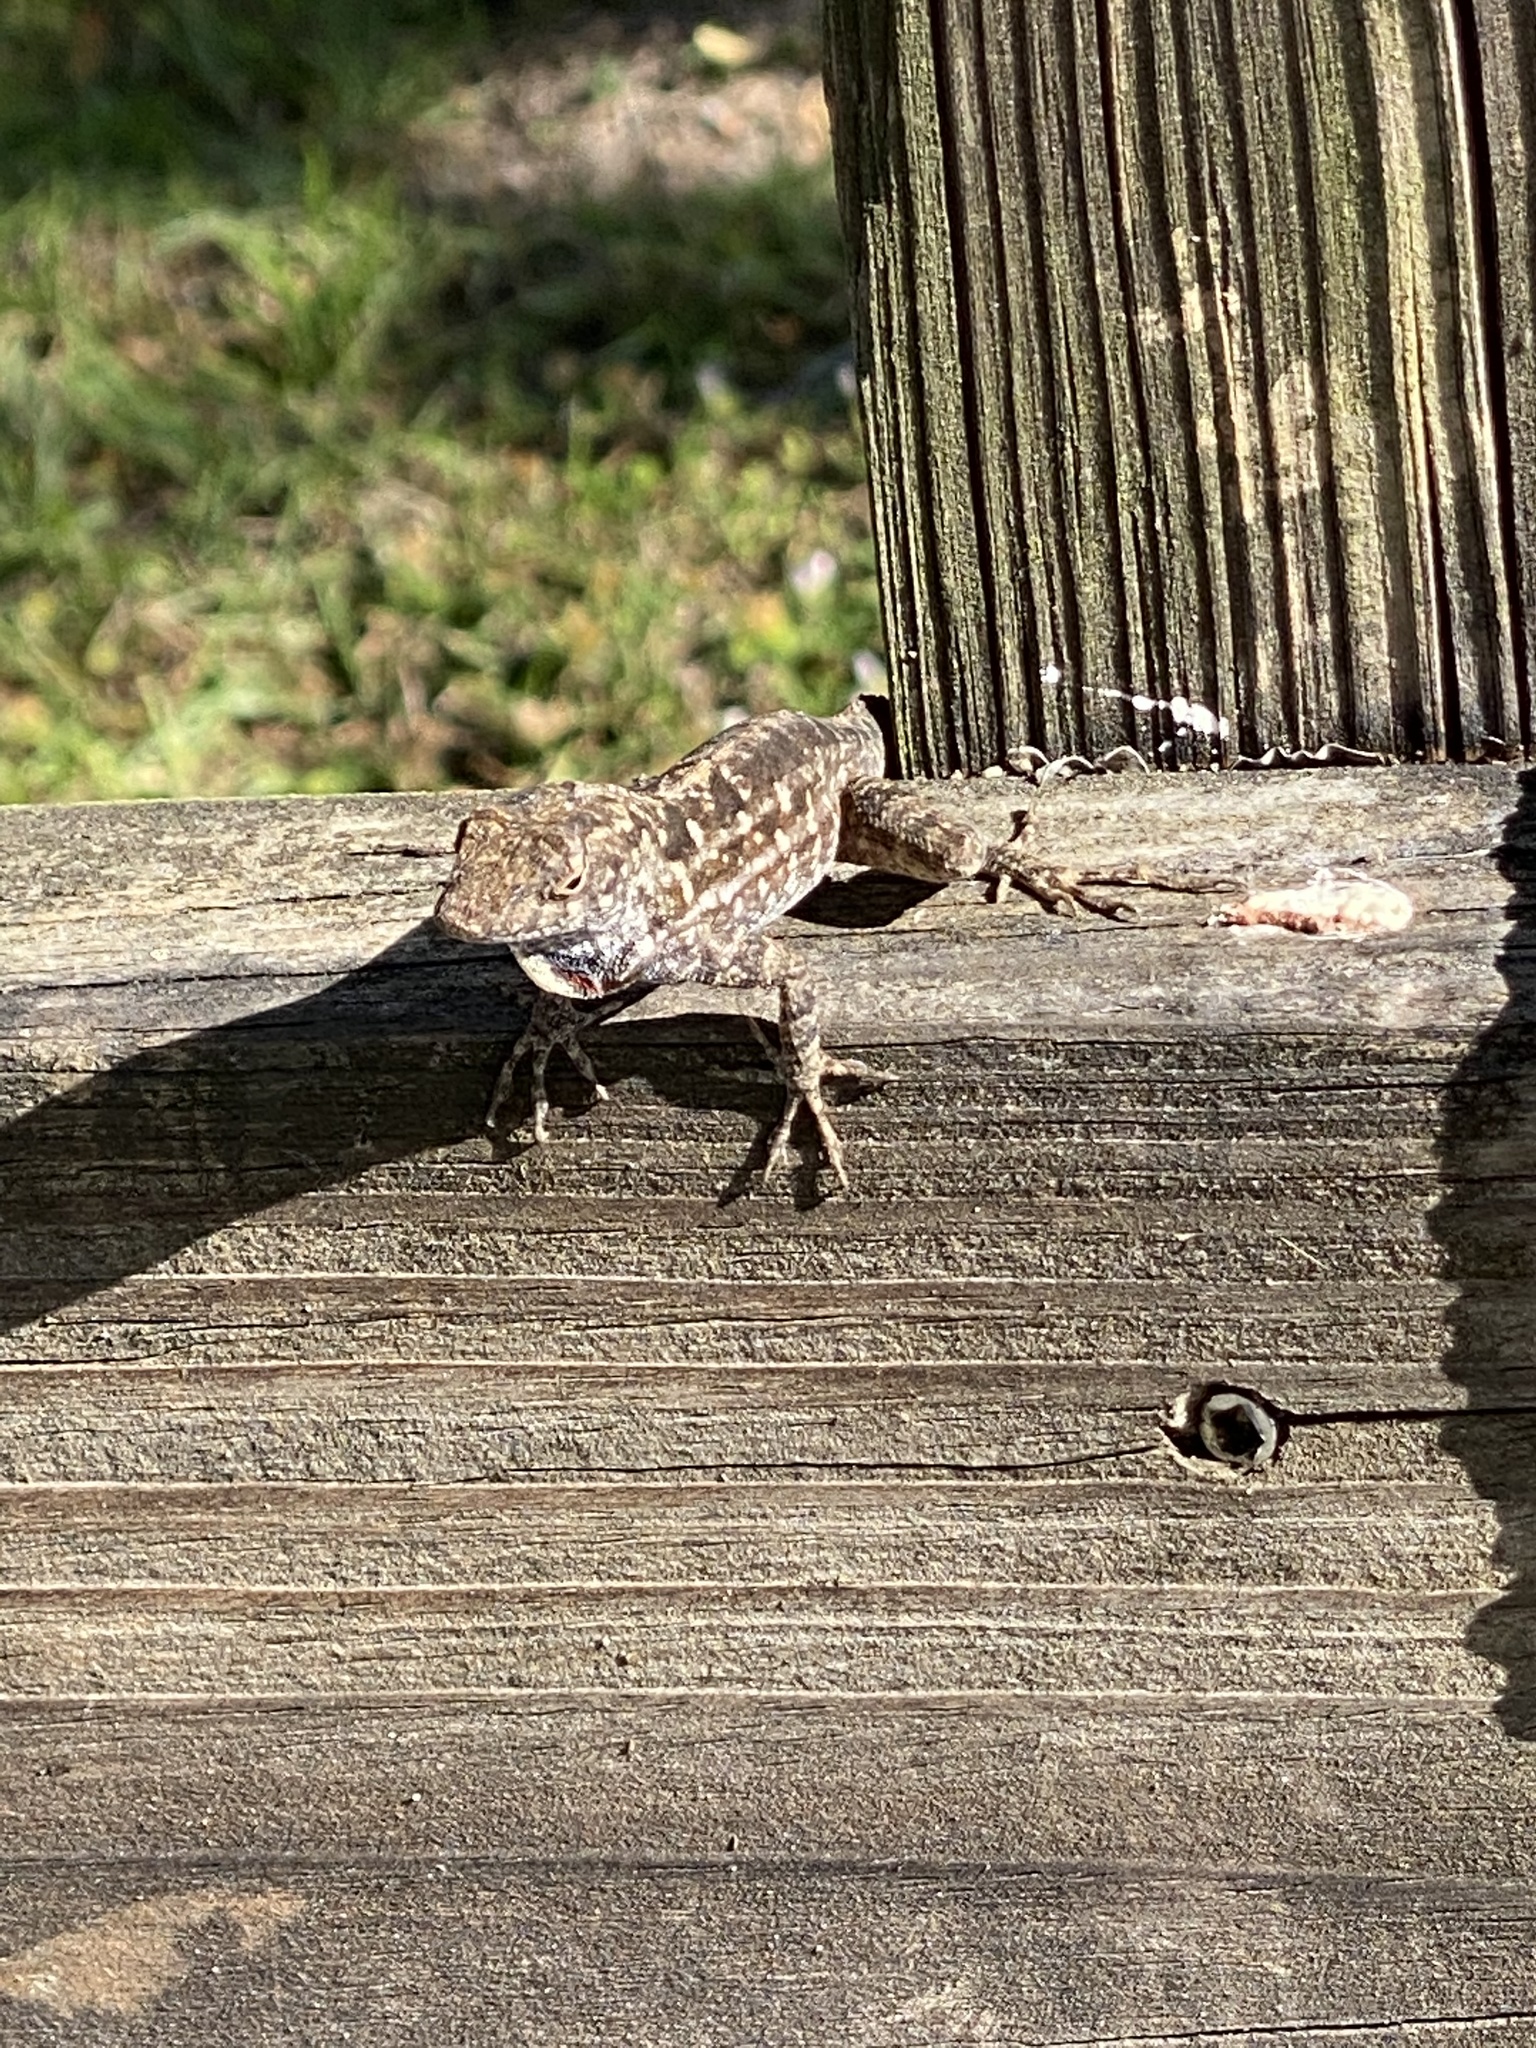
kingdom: Animalia
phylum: Chordata
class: Squamata
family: Dactyloidae
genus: Anolis
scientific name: Anolis sagrei
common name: Brown anole
